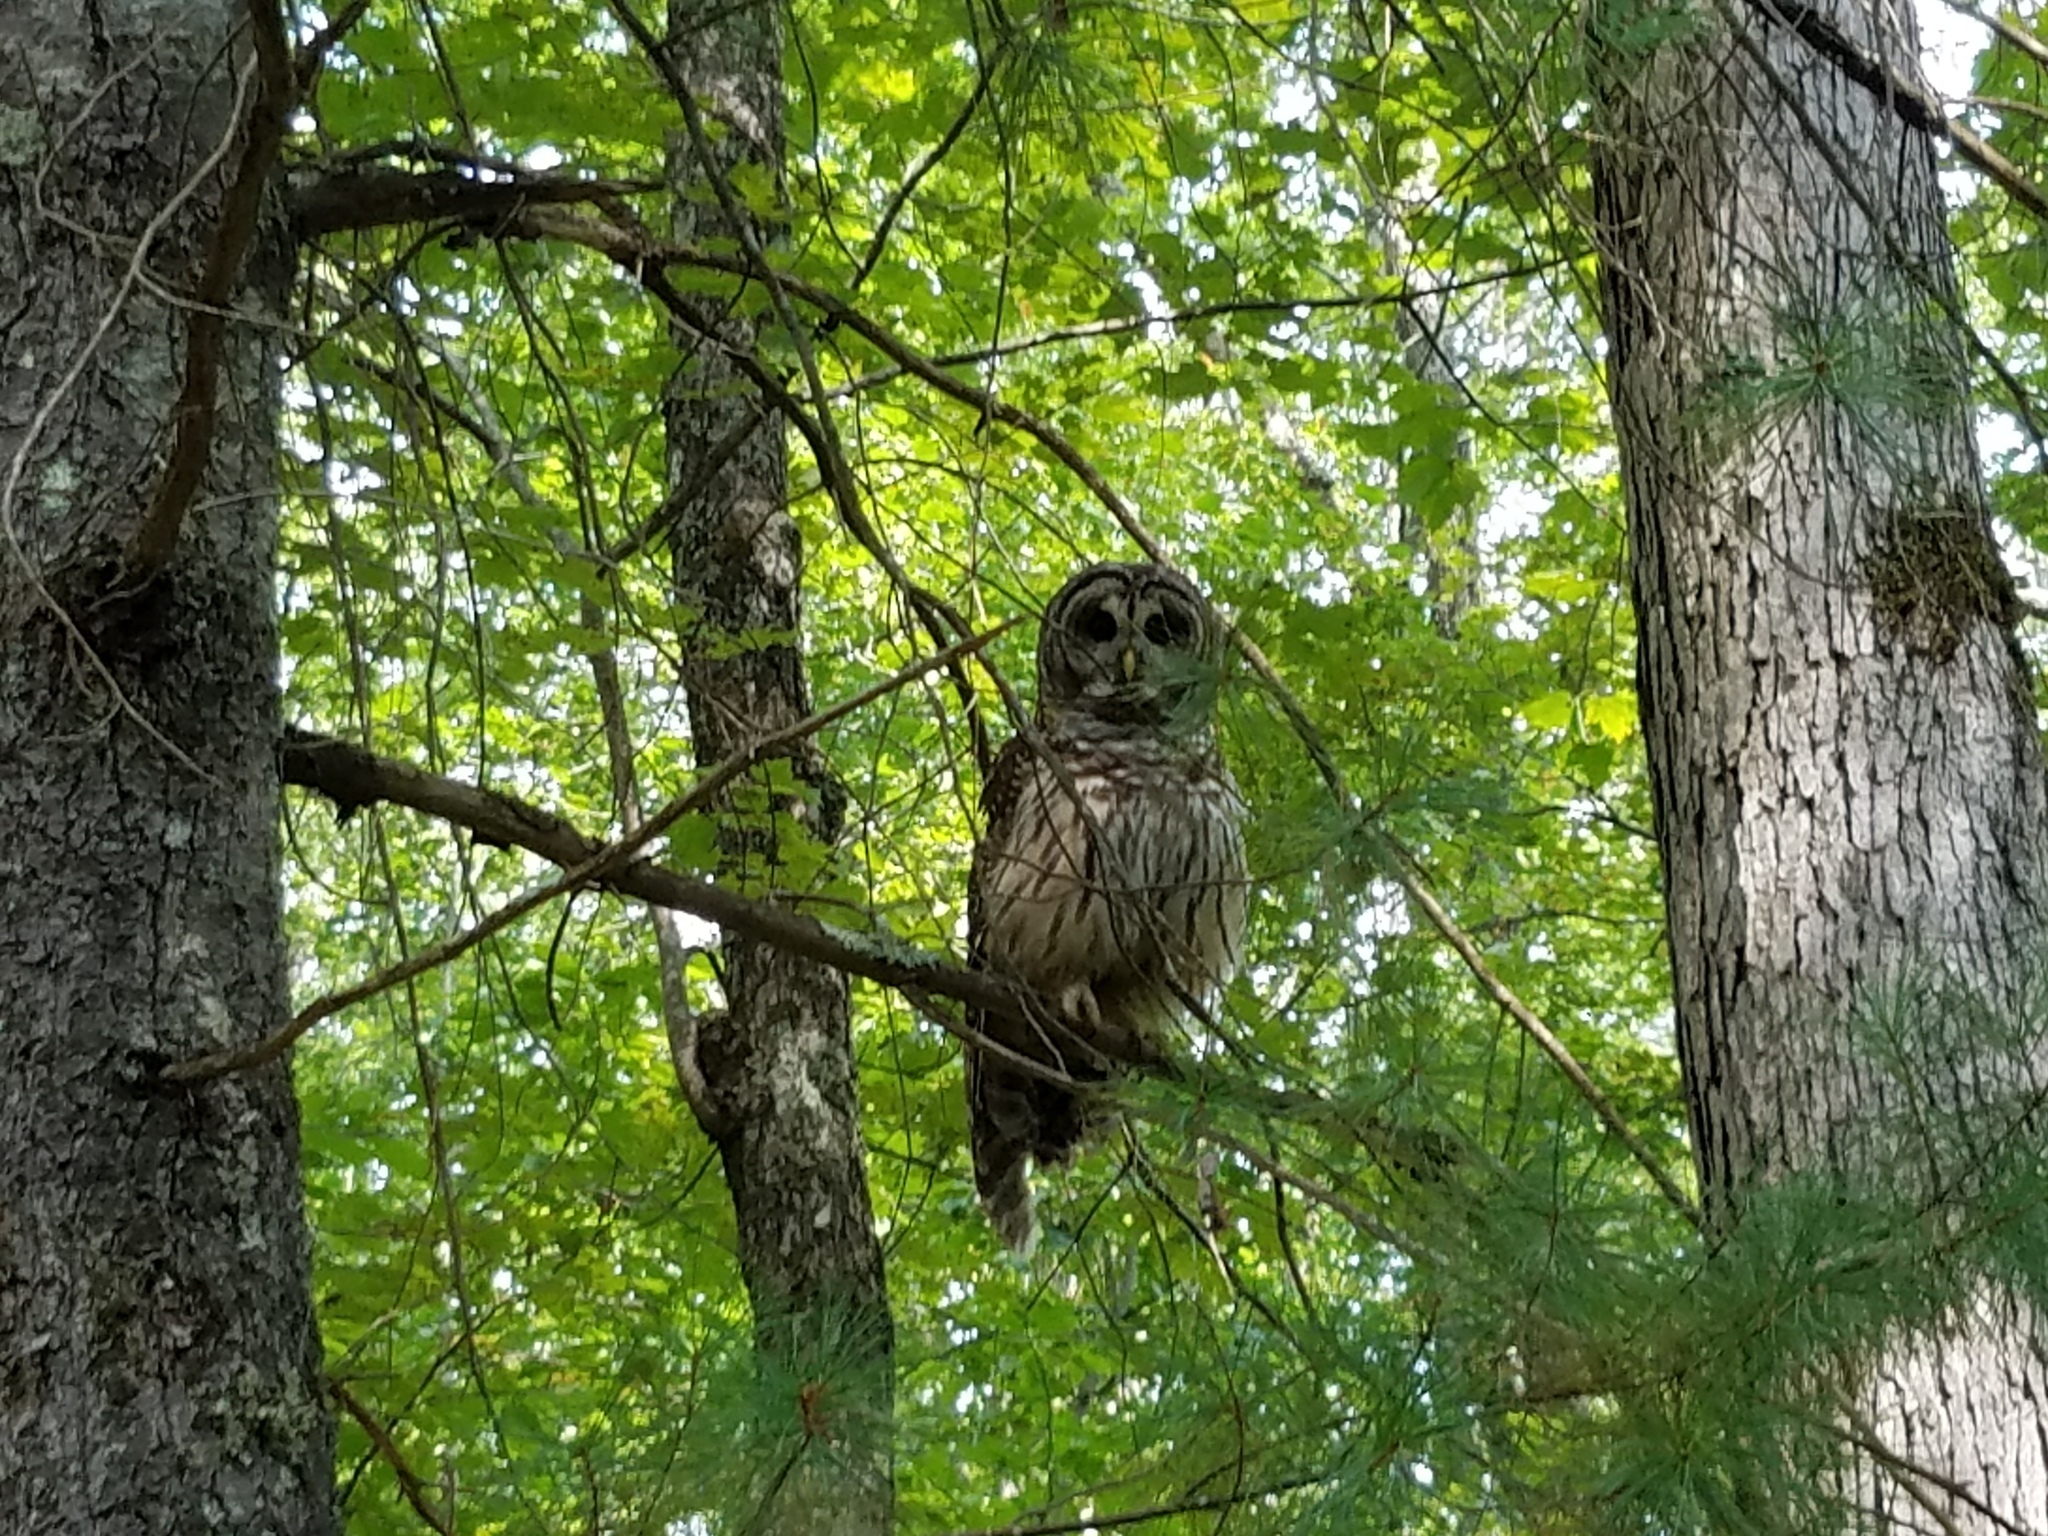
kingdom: Animalia
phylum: Chordata
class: Aves
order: Strigiformes
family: Strigidae
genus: Strix
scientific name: Strix varia
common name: Barred owl
